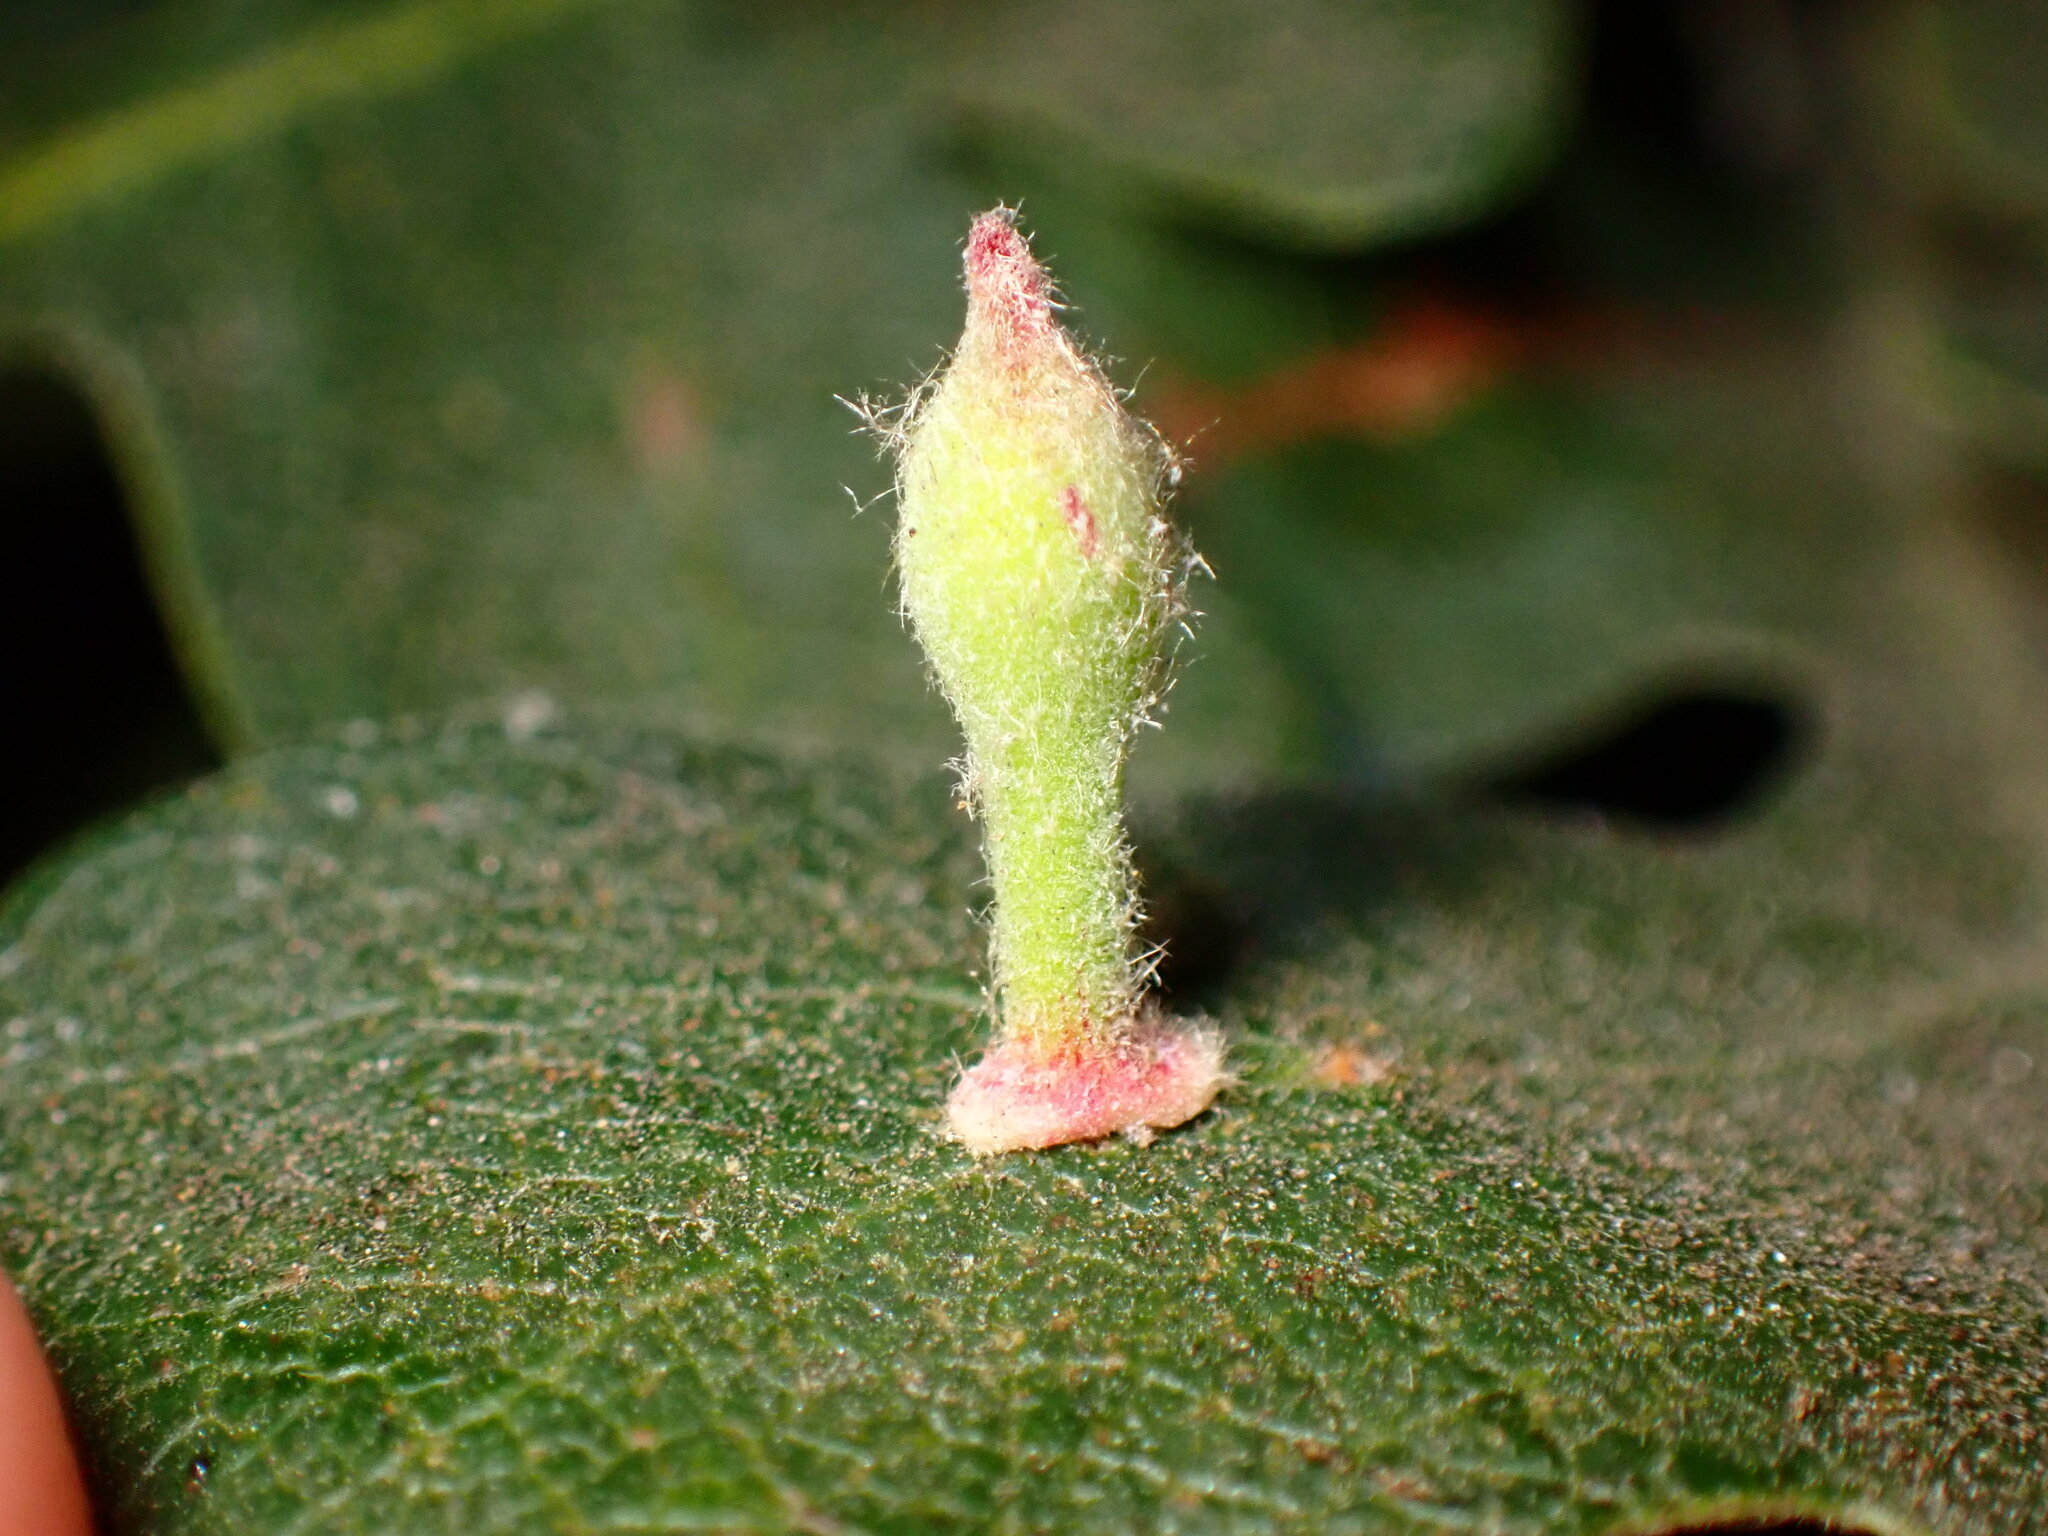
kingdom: Animalia
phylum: Arthropoda
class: Insecta
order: Hymenoptera
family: Cynipidae
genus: Atrusca
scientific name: Atrusca
